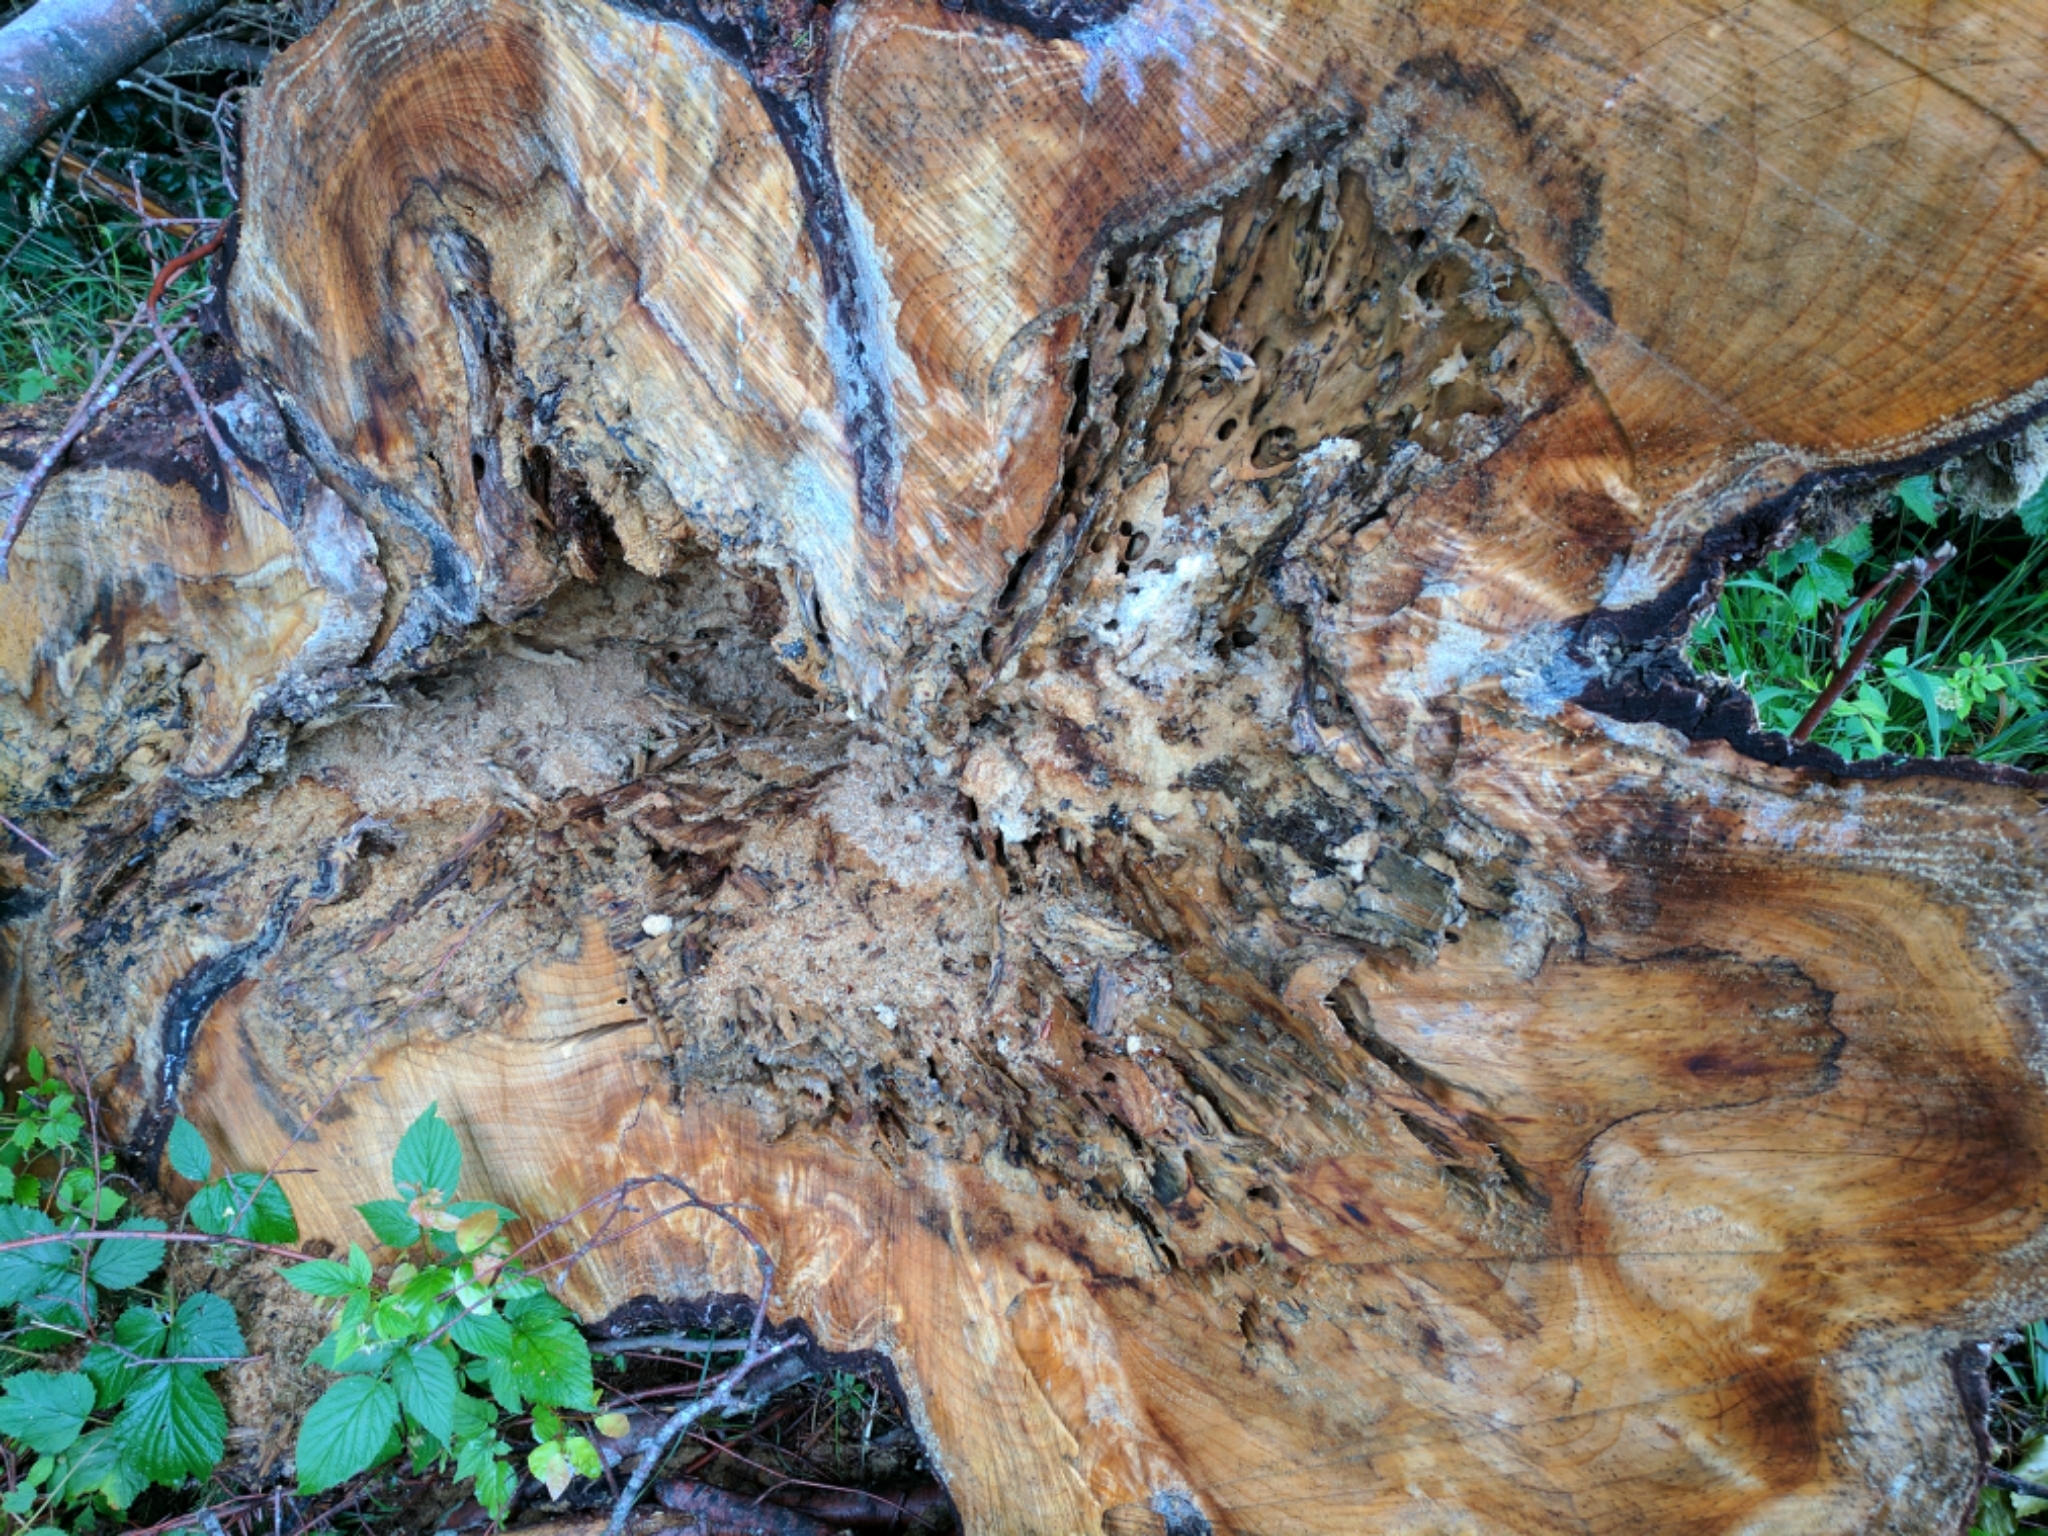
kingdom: Animalia
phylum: Arthropoda
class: Insecta
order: Hymenoptera
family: Formicidae
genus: Camponotus
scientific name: Camponotus herculeanus
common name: Hercules ant
